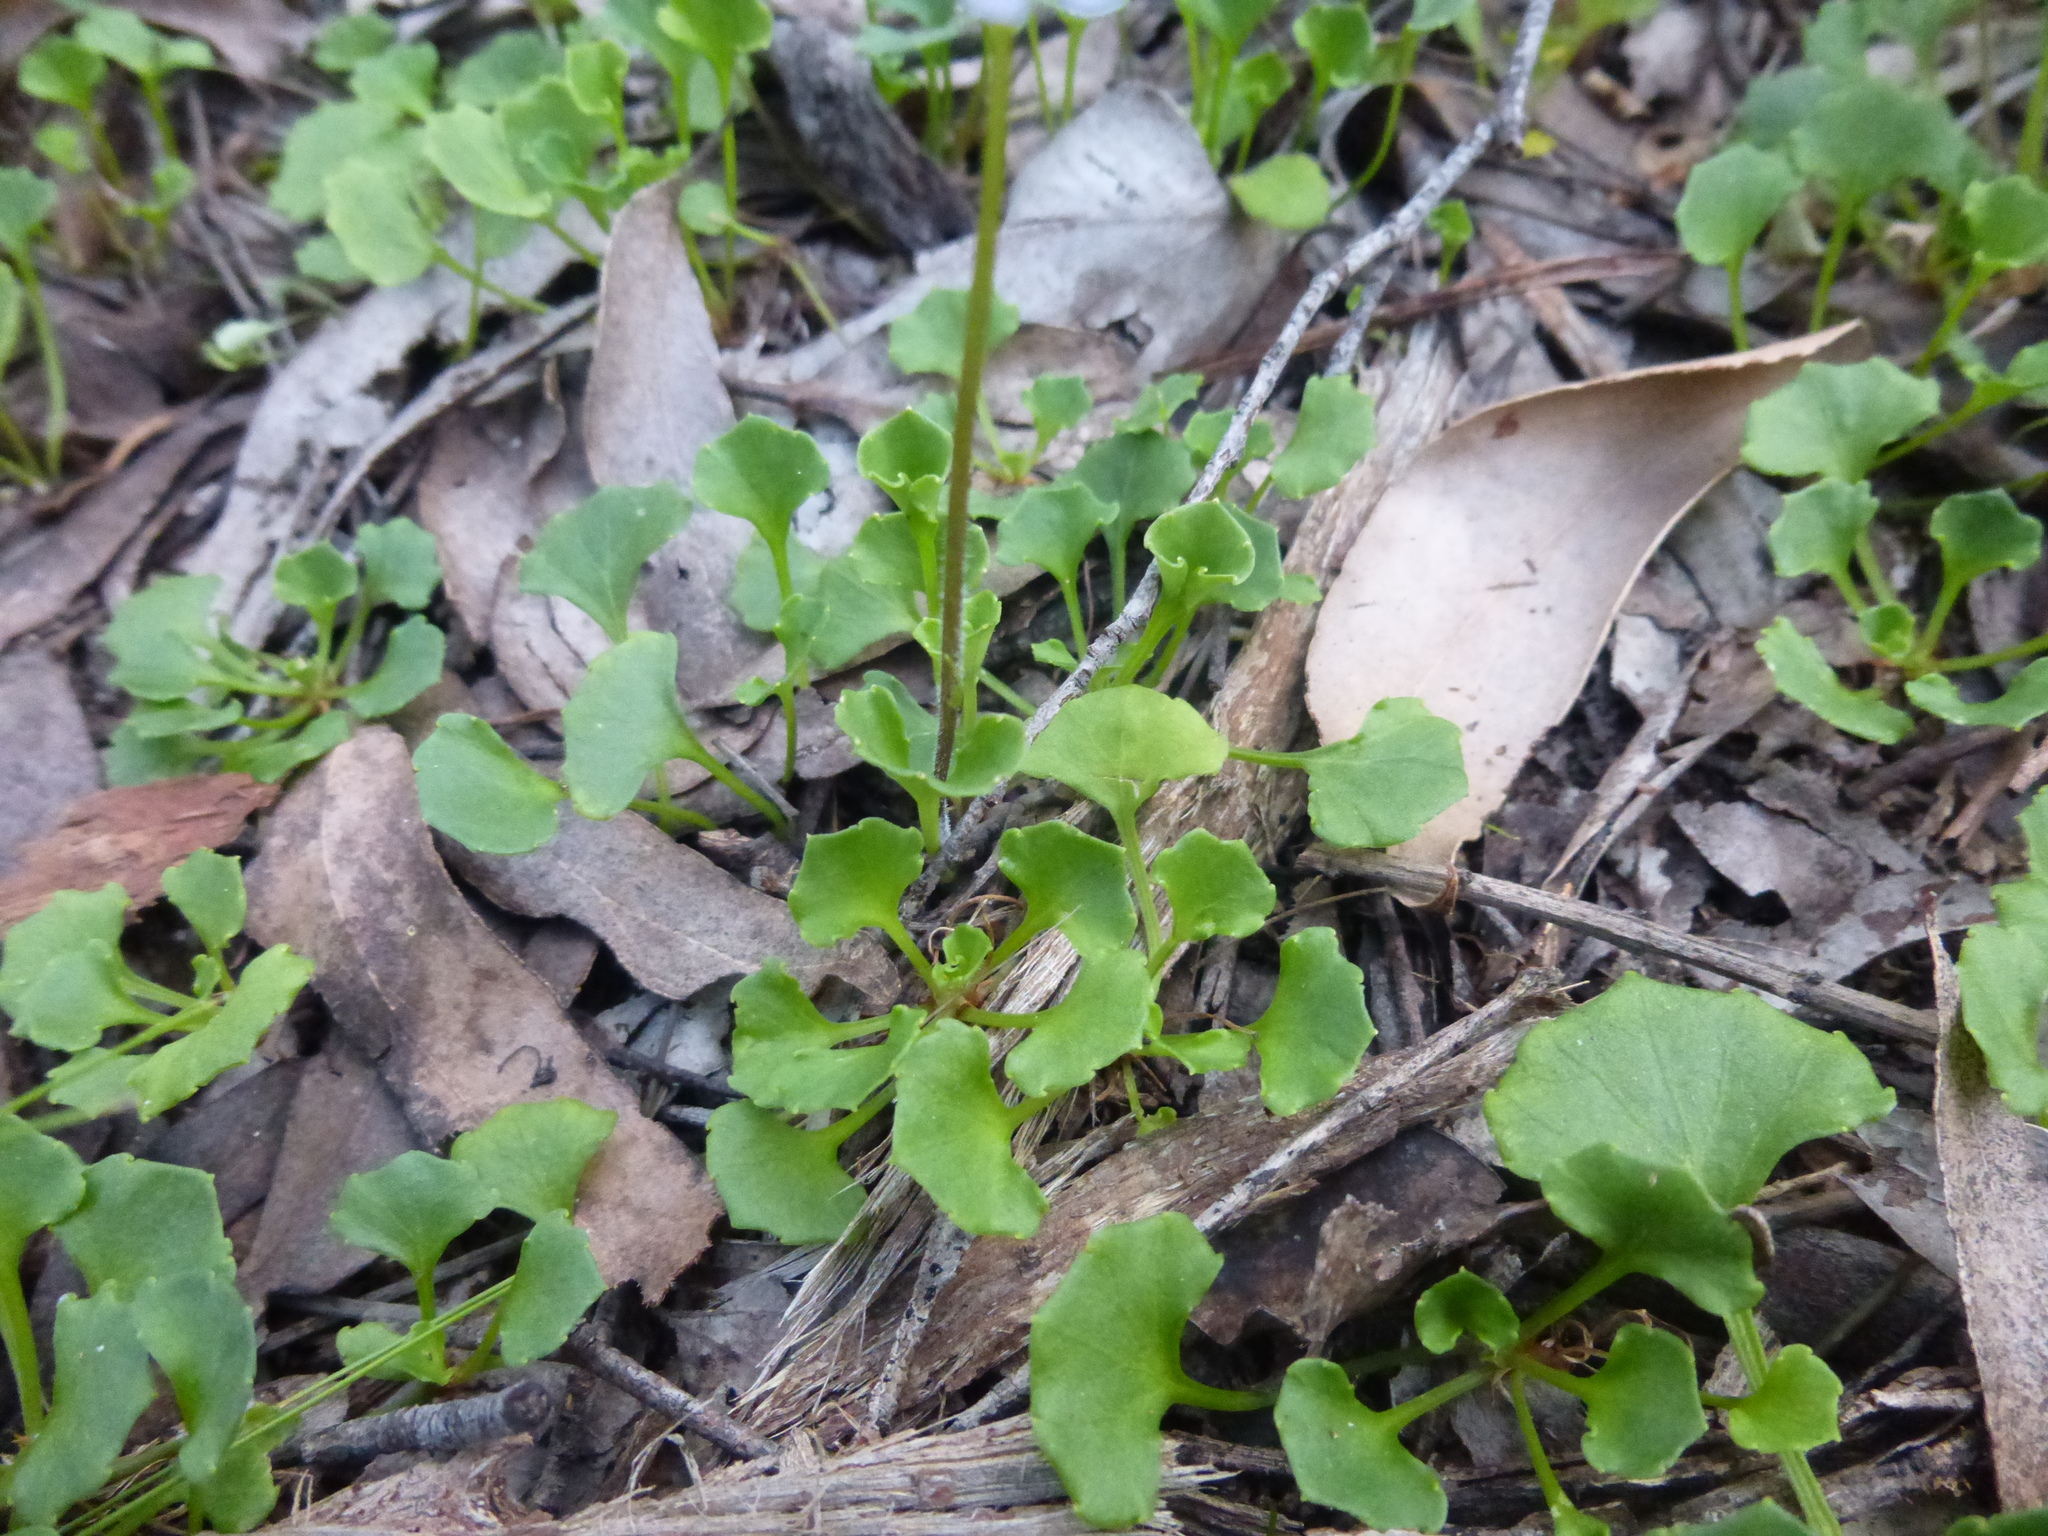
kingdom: Plantae
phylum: Tracheophyta
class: Magnoliopsida
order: Malpighiales
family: Violaceae
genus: Viola
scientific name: Viola hederacea
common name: Australian violet
